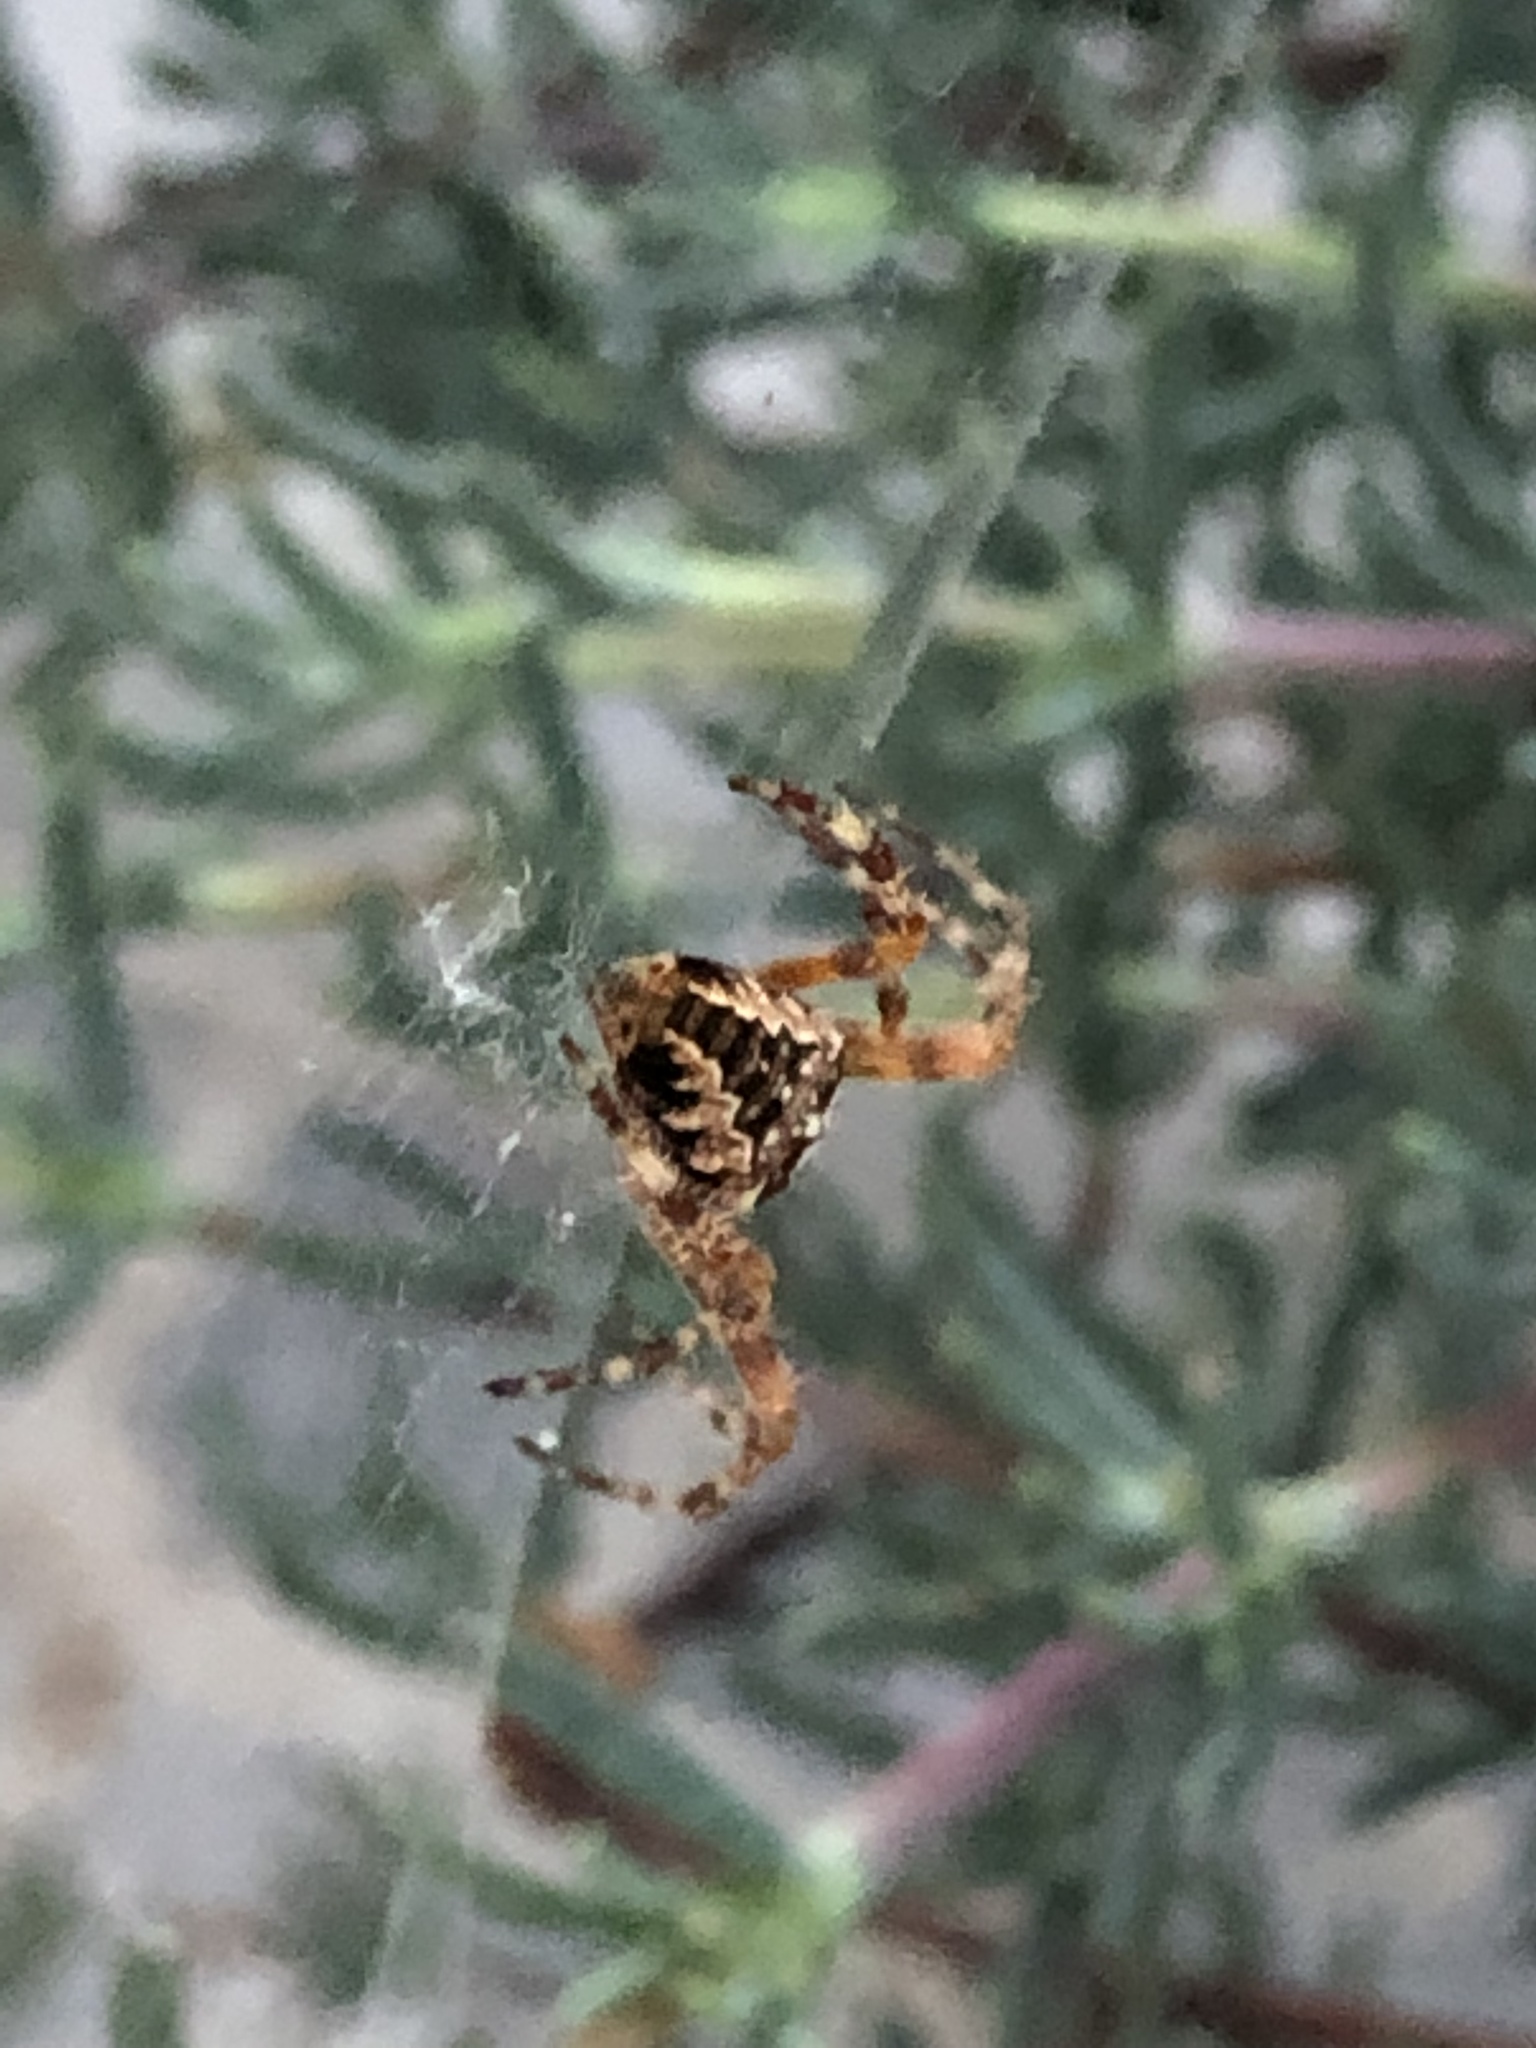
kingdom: Animalia
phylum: Arthropoda
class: Arachnida
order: Araneae
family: Araneidae
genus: Araneus
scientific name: Araneus diadematus
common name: Cross orbweaver
